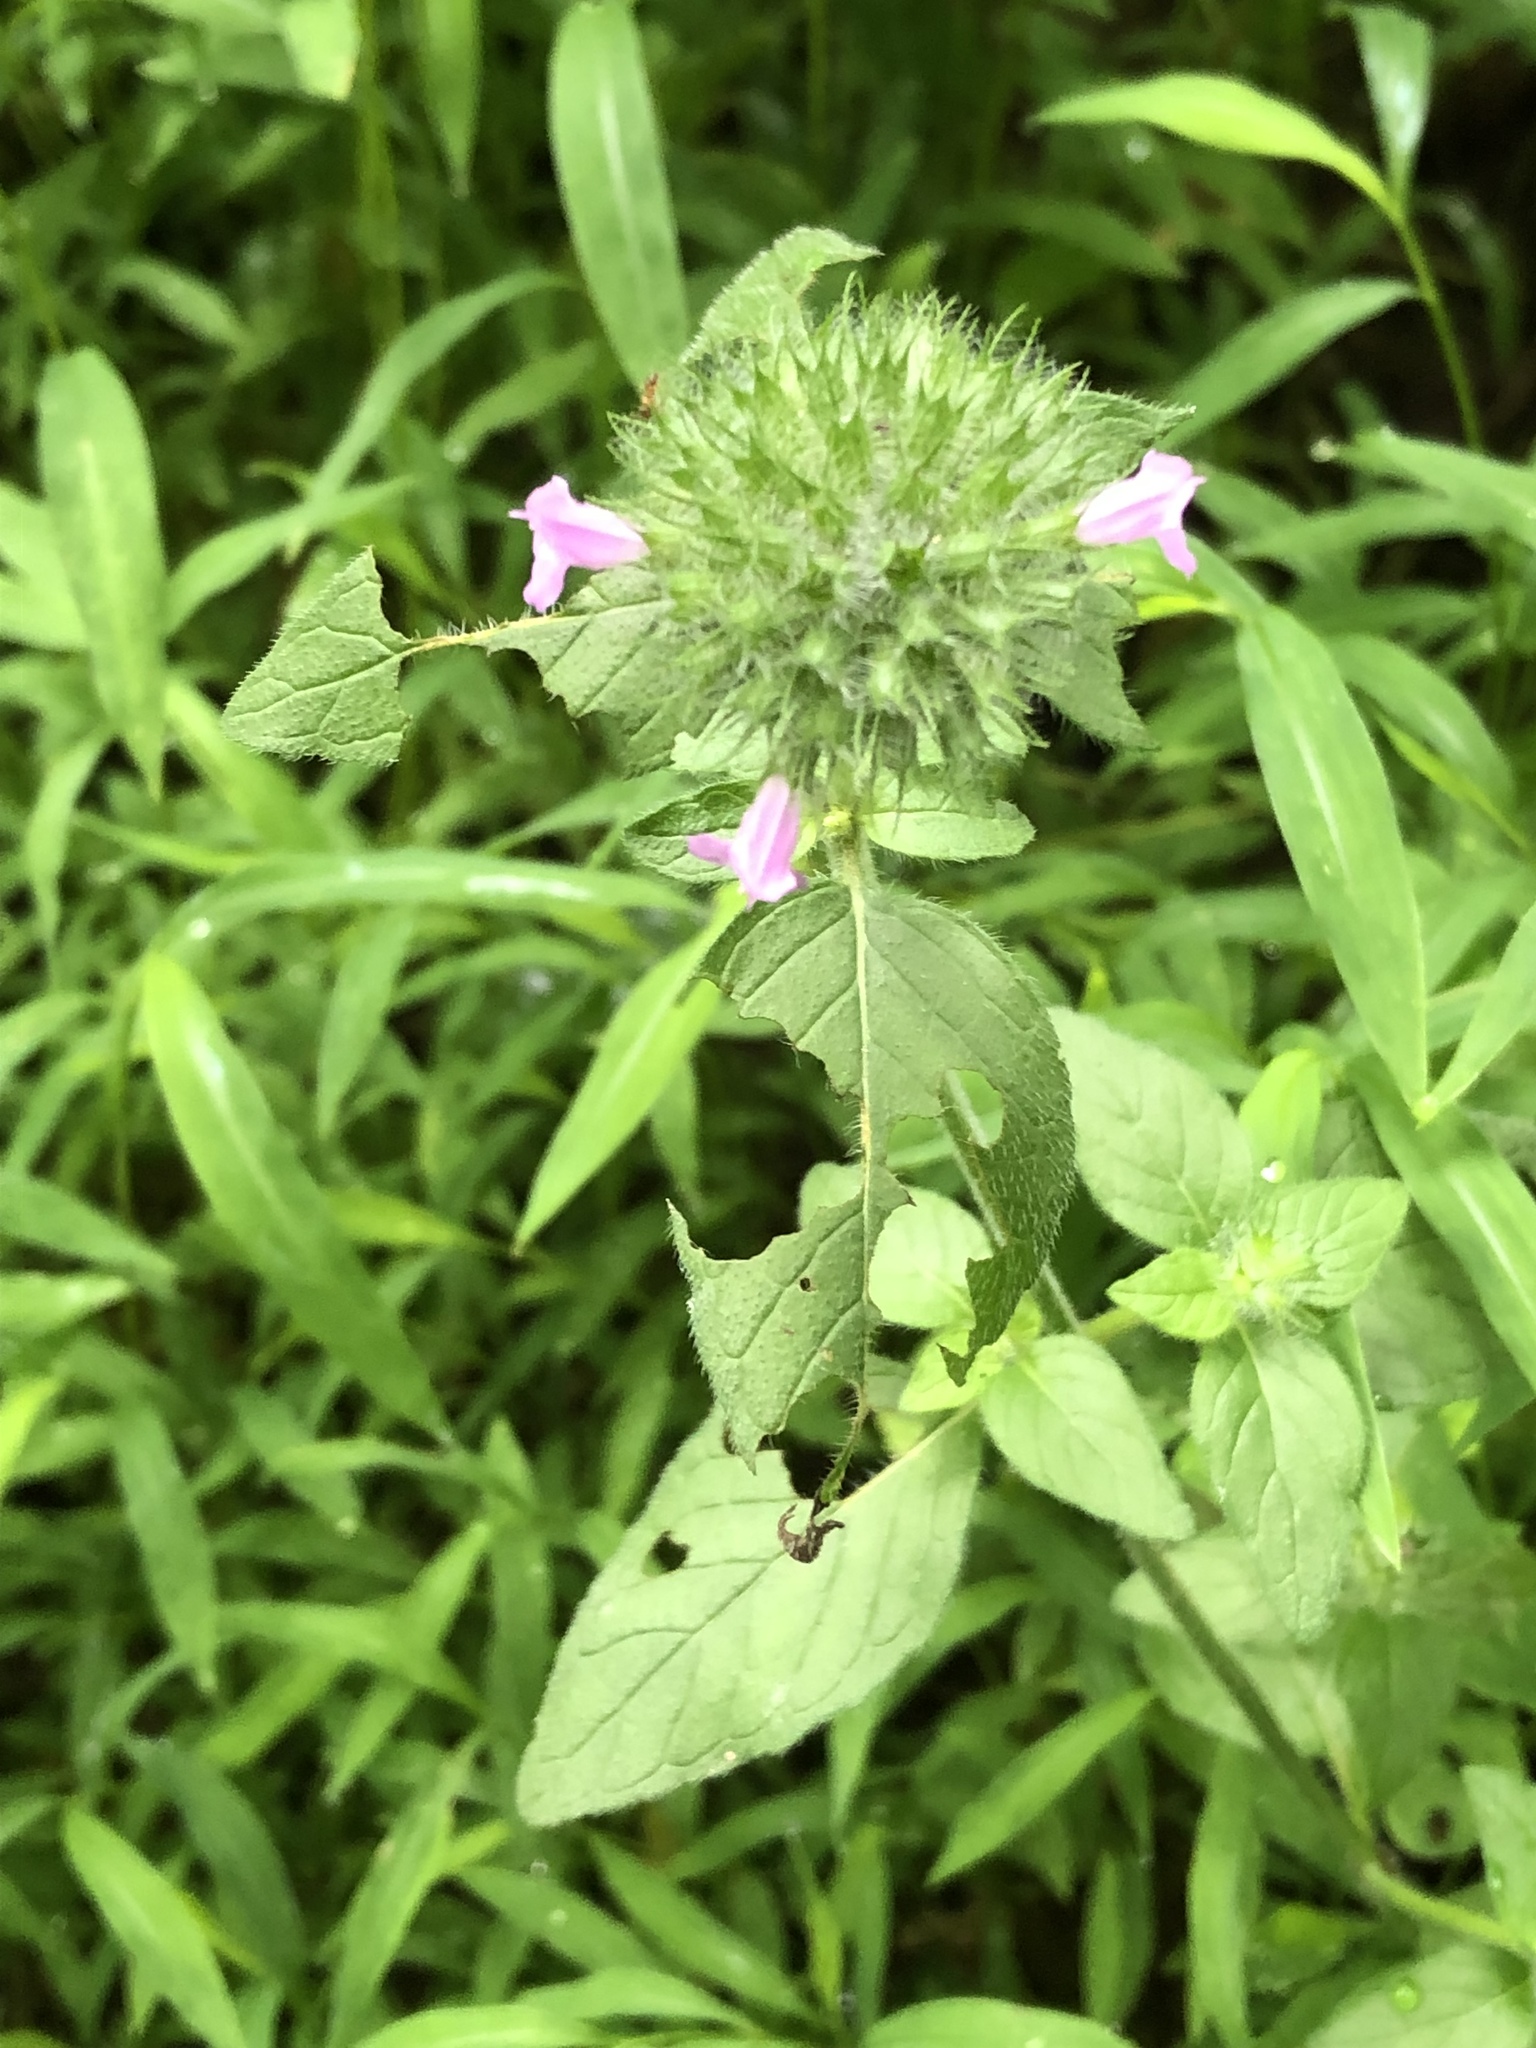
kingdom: Plantae
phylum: Tracheophyta
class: Magnoliopsida
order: Lamiales
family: Lamiaceae
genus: Clinopodium
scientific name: Clinopodium vulgare
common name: Wild basil
